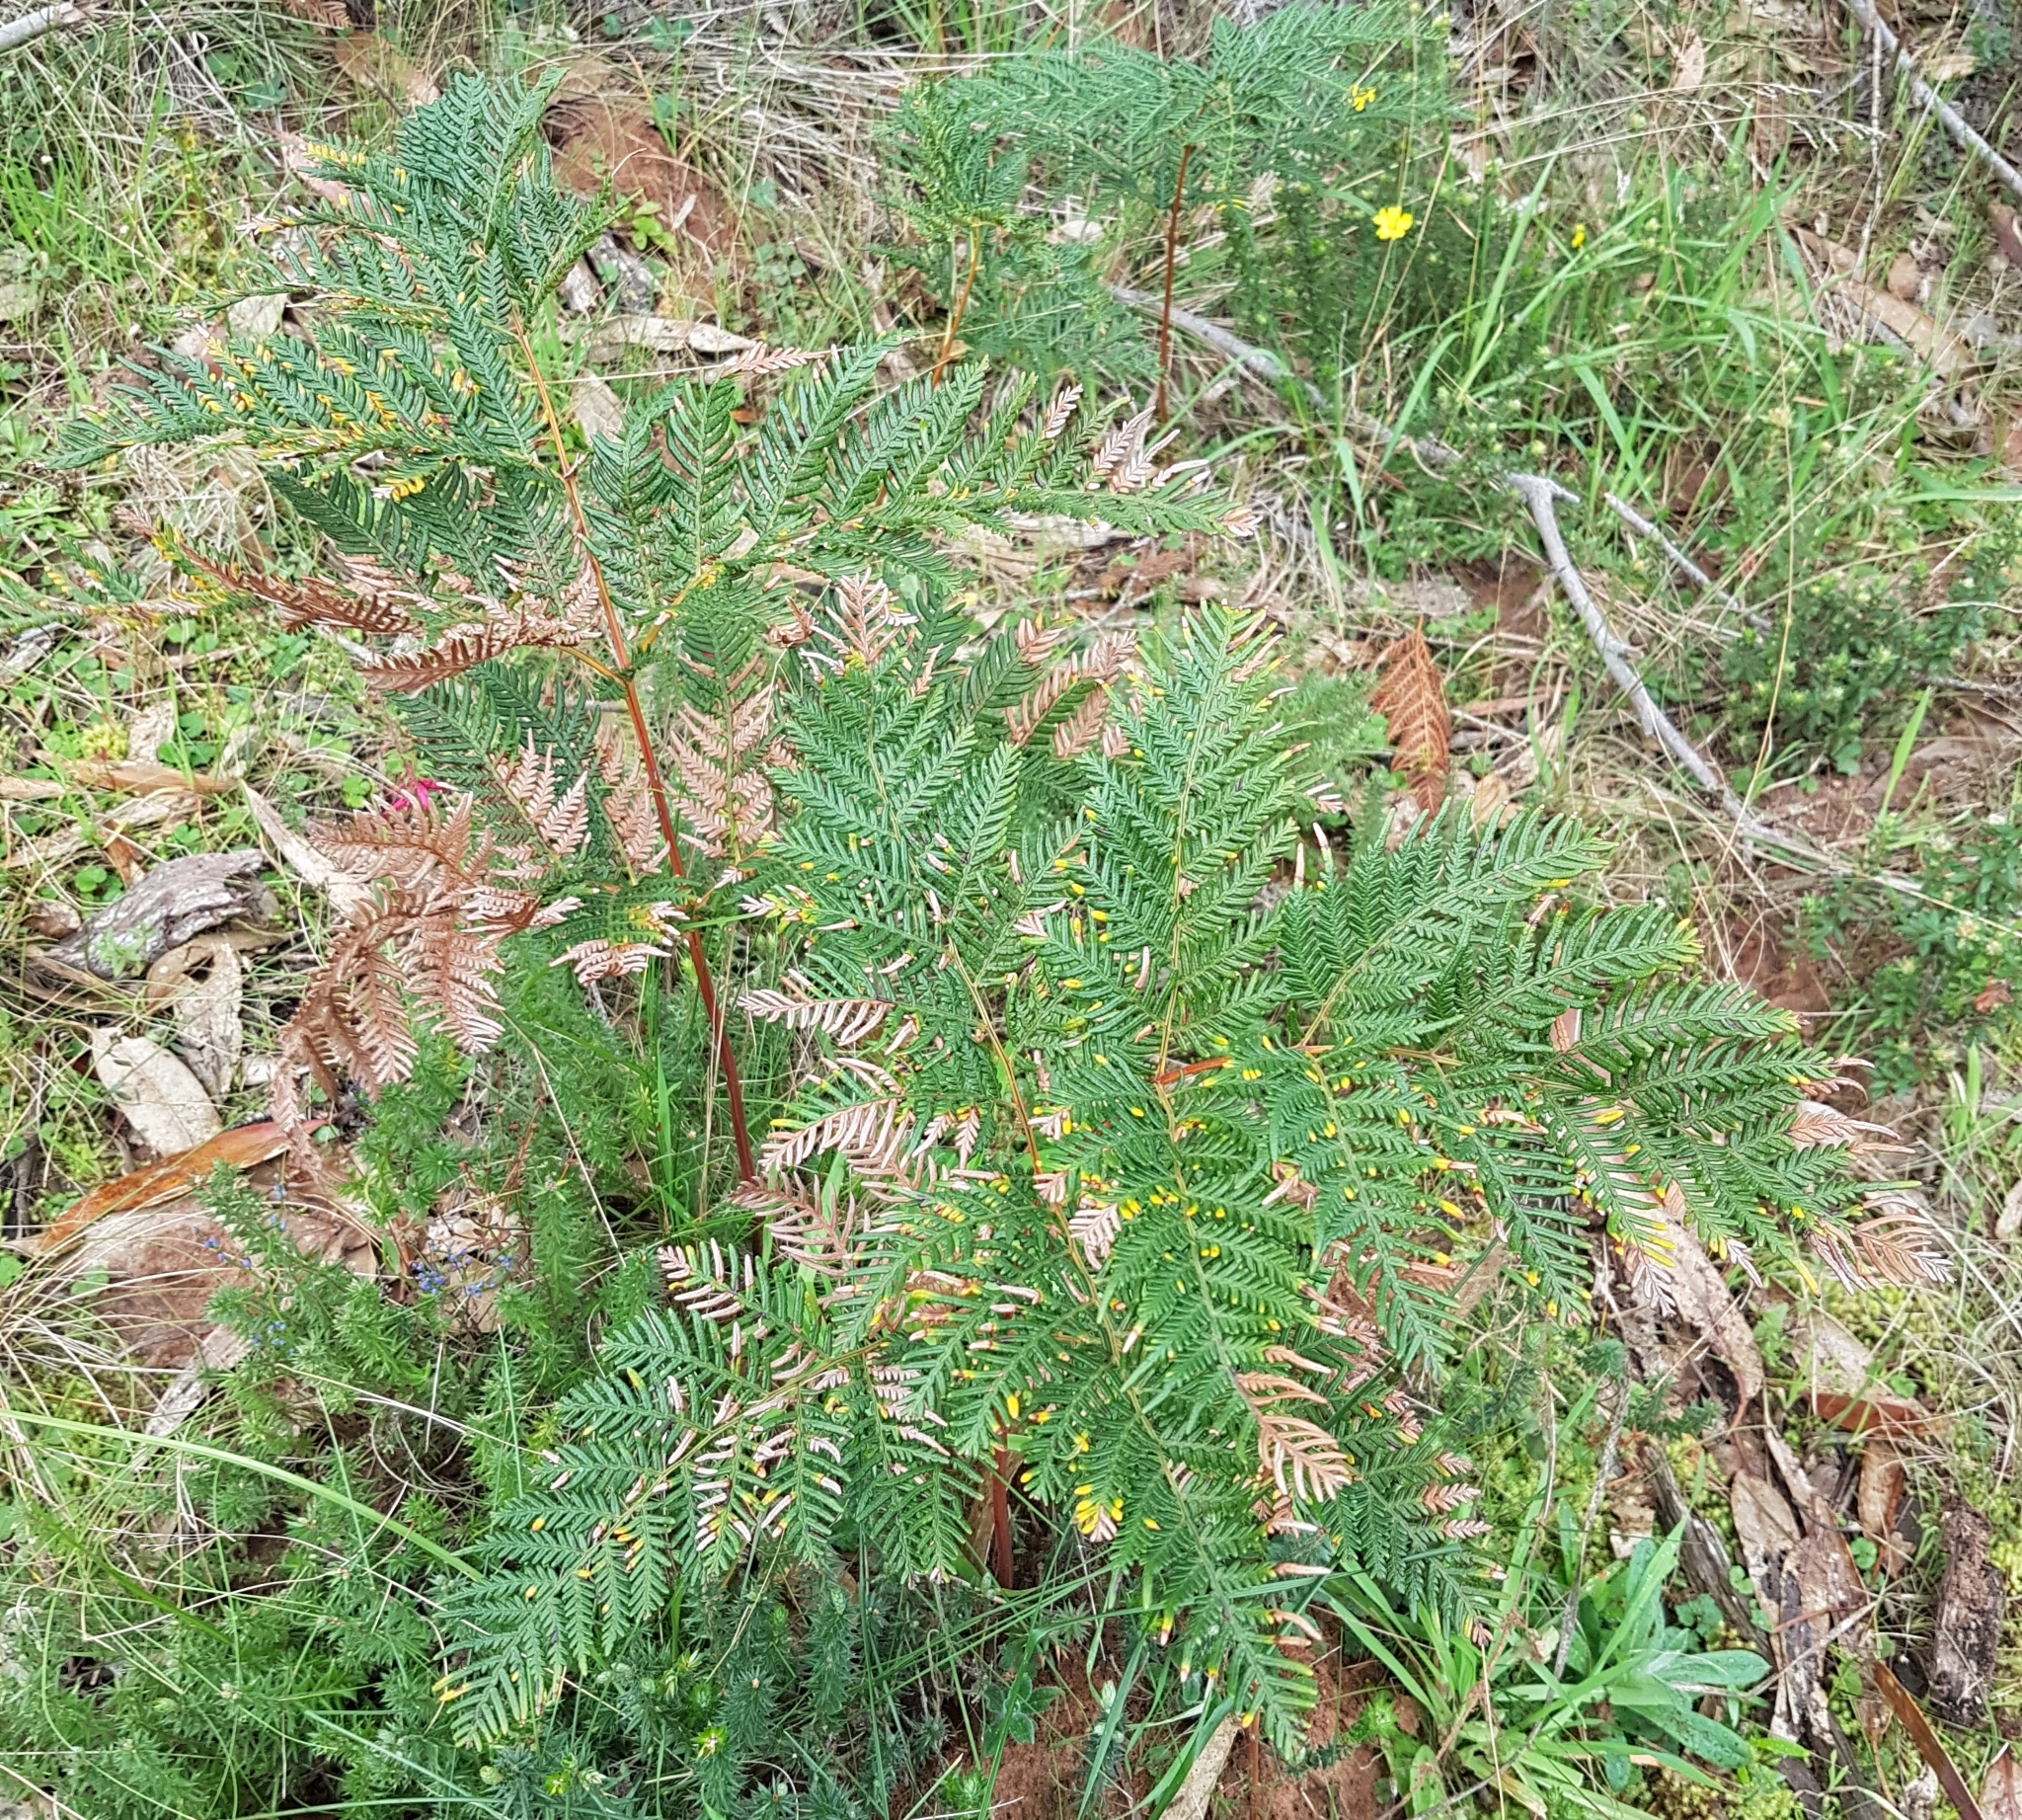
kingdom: Plantae
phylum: Tracheophyta
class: Polypodiopsida
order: Polypodiales
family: Dennstaedtiaceae
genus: Pteridium
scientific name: Pteridium esculentum
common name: Bracken fern
